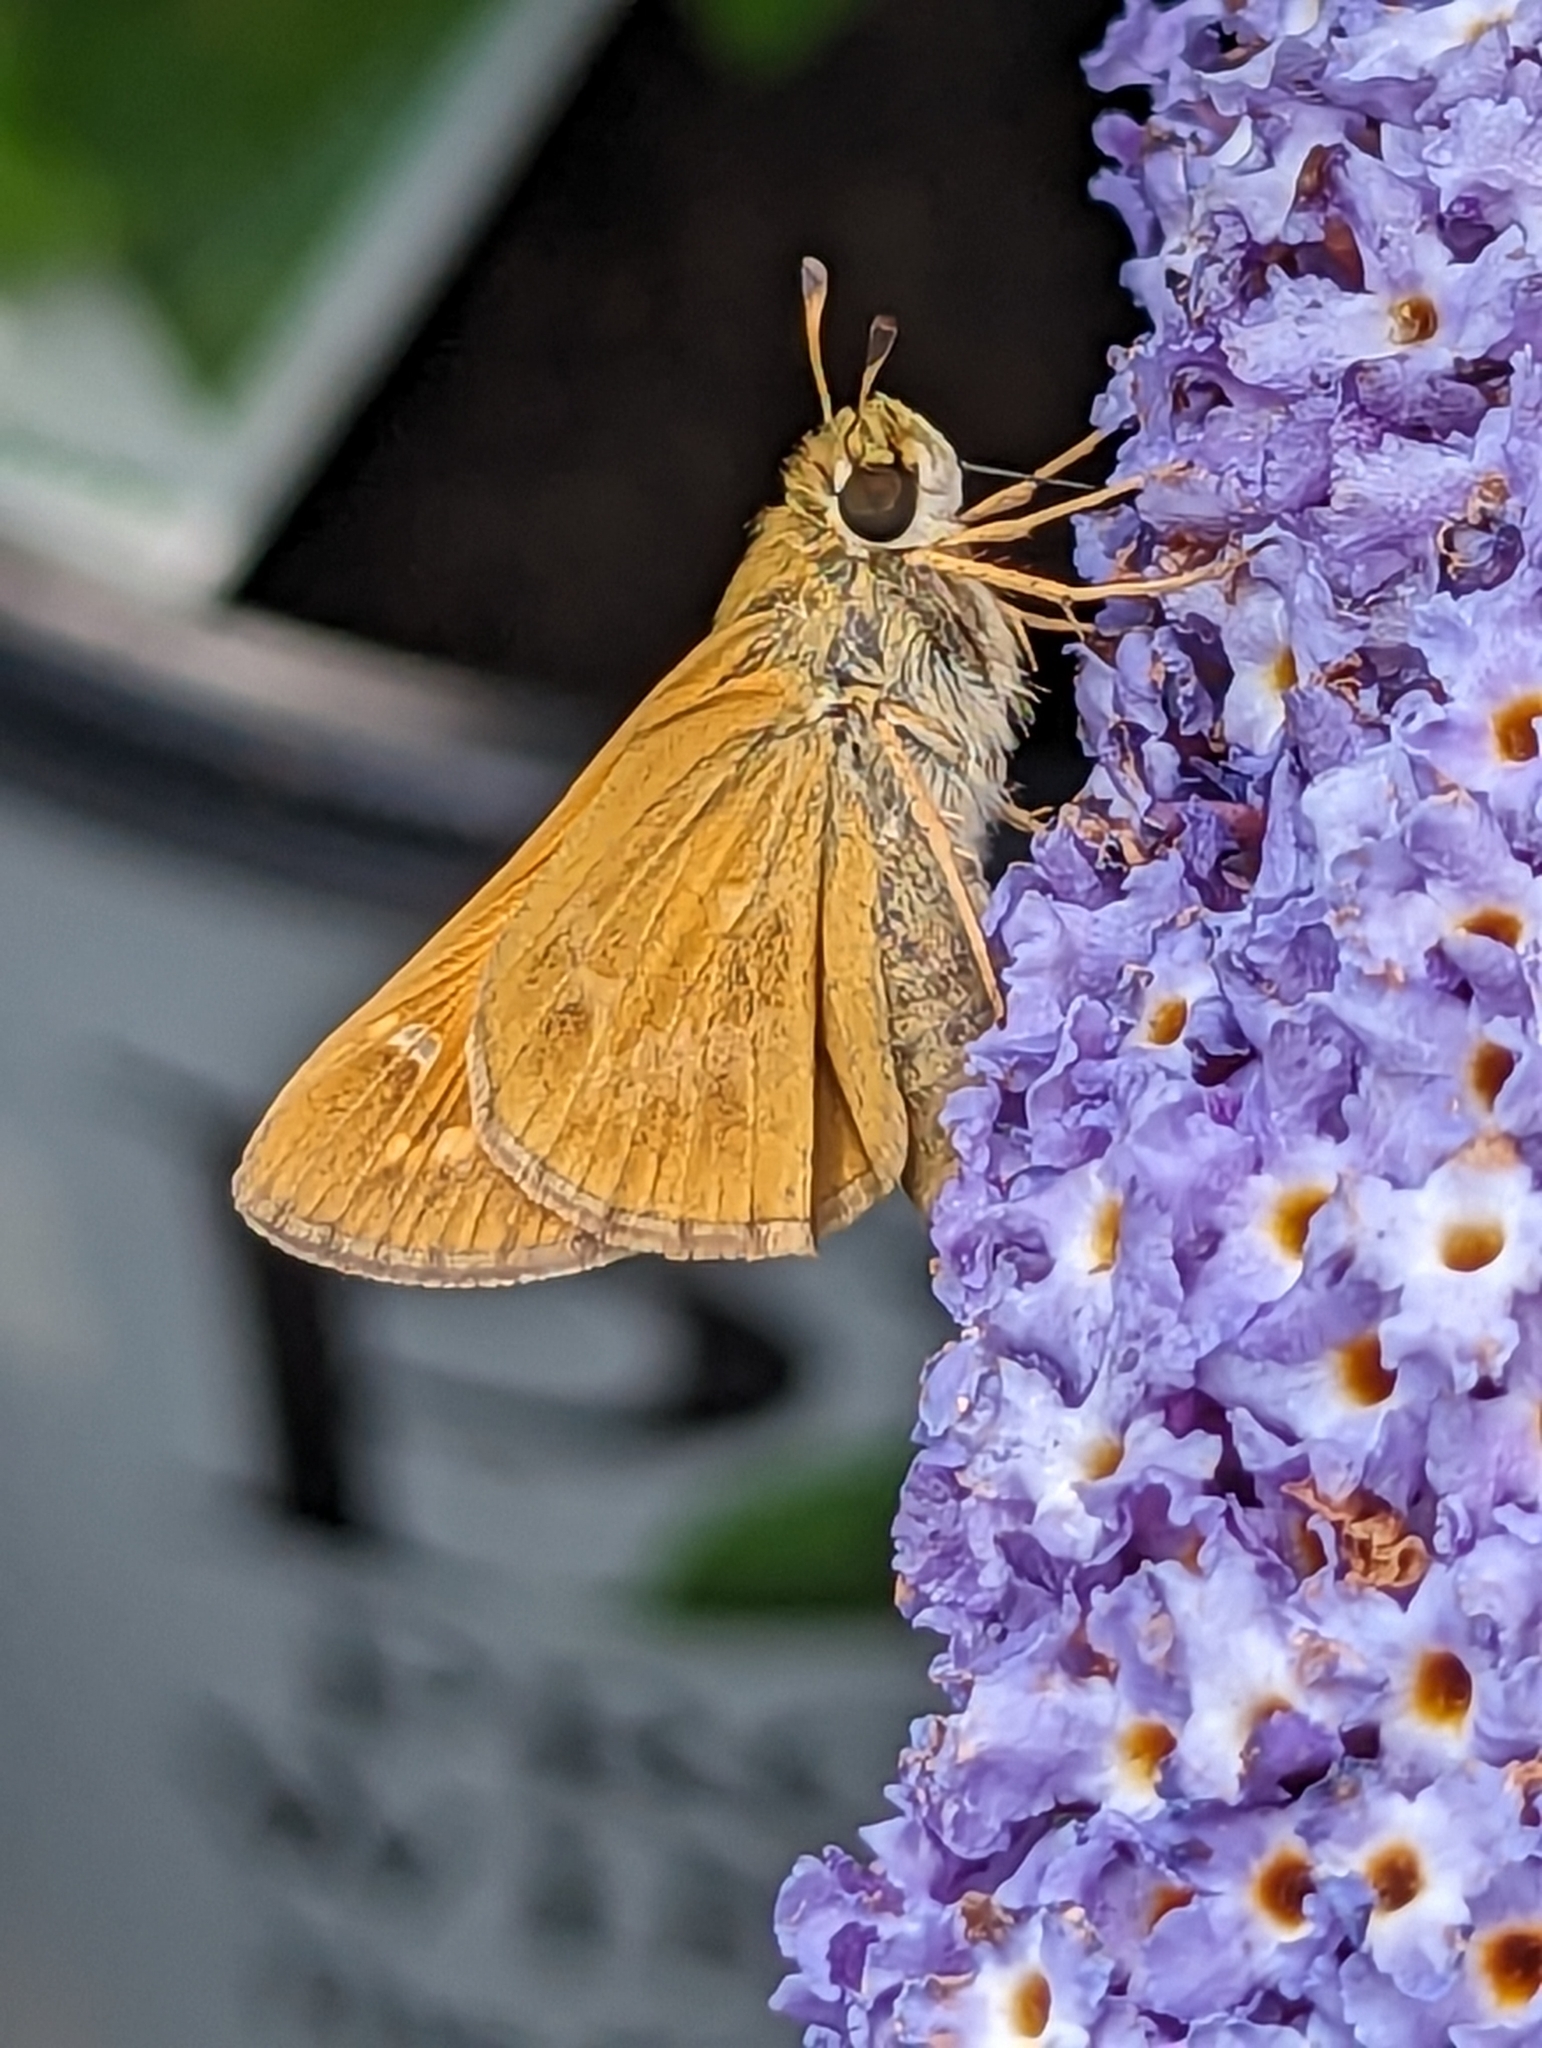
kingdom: Animalia
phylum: Arthropoda
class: Insecta
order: Lepidoptera
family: Hesperiidae
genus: Atalopedes
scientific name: Atalopedes
